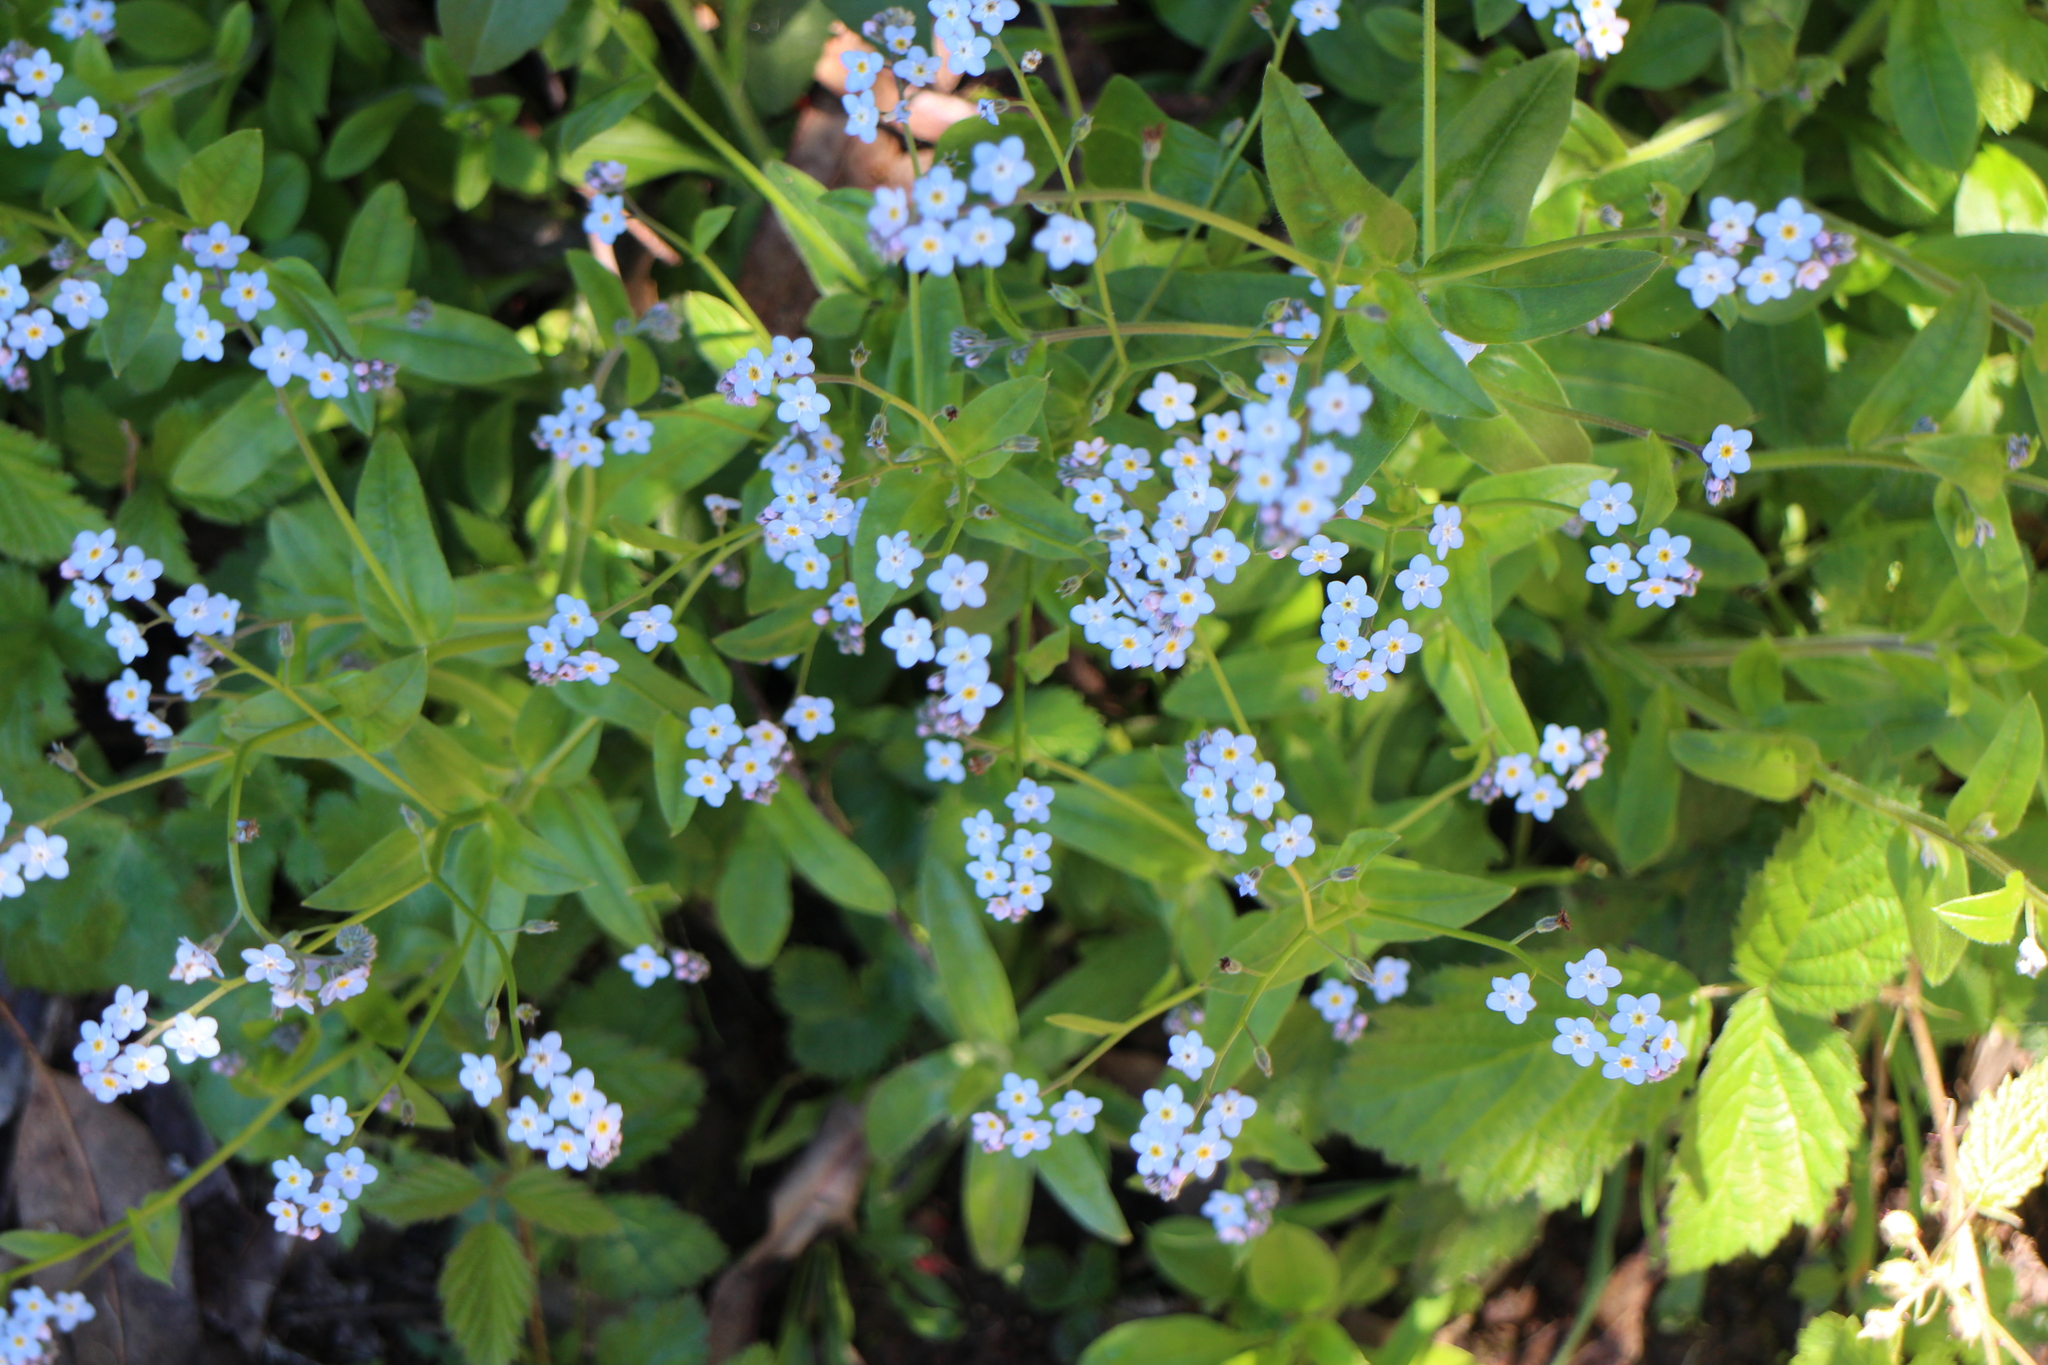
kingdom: Plantae
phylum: Tracheophyta
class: Magnoliopsida
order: Boraginales
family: Boraginaceae
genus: Myosotis
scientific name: Myosotis latifolia
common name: Broadleaf forget-me-not
